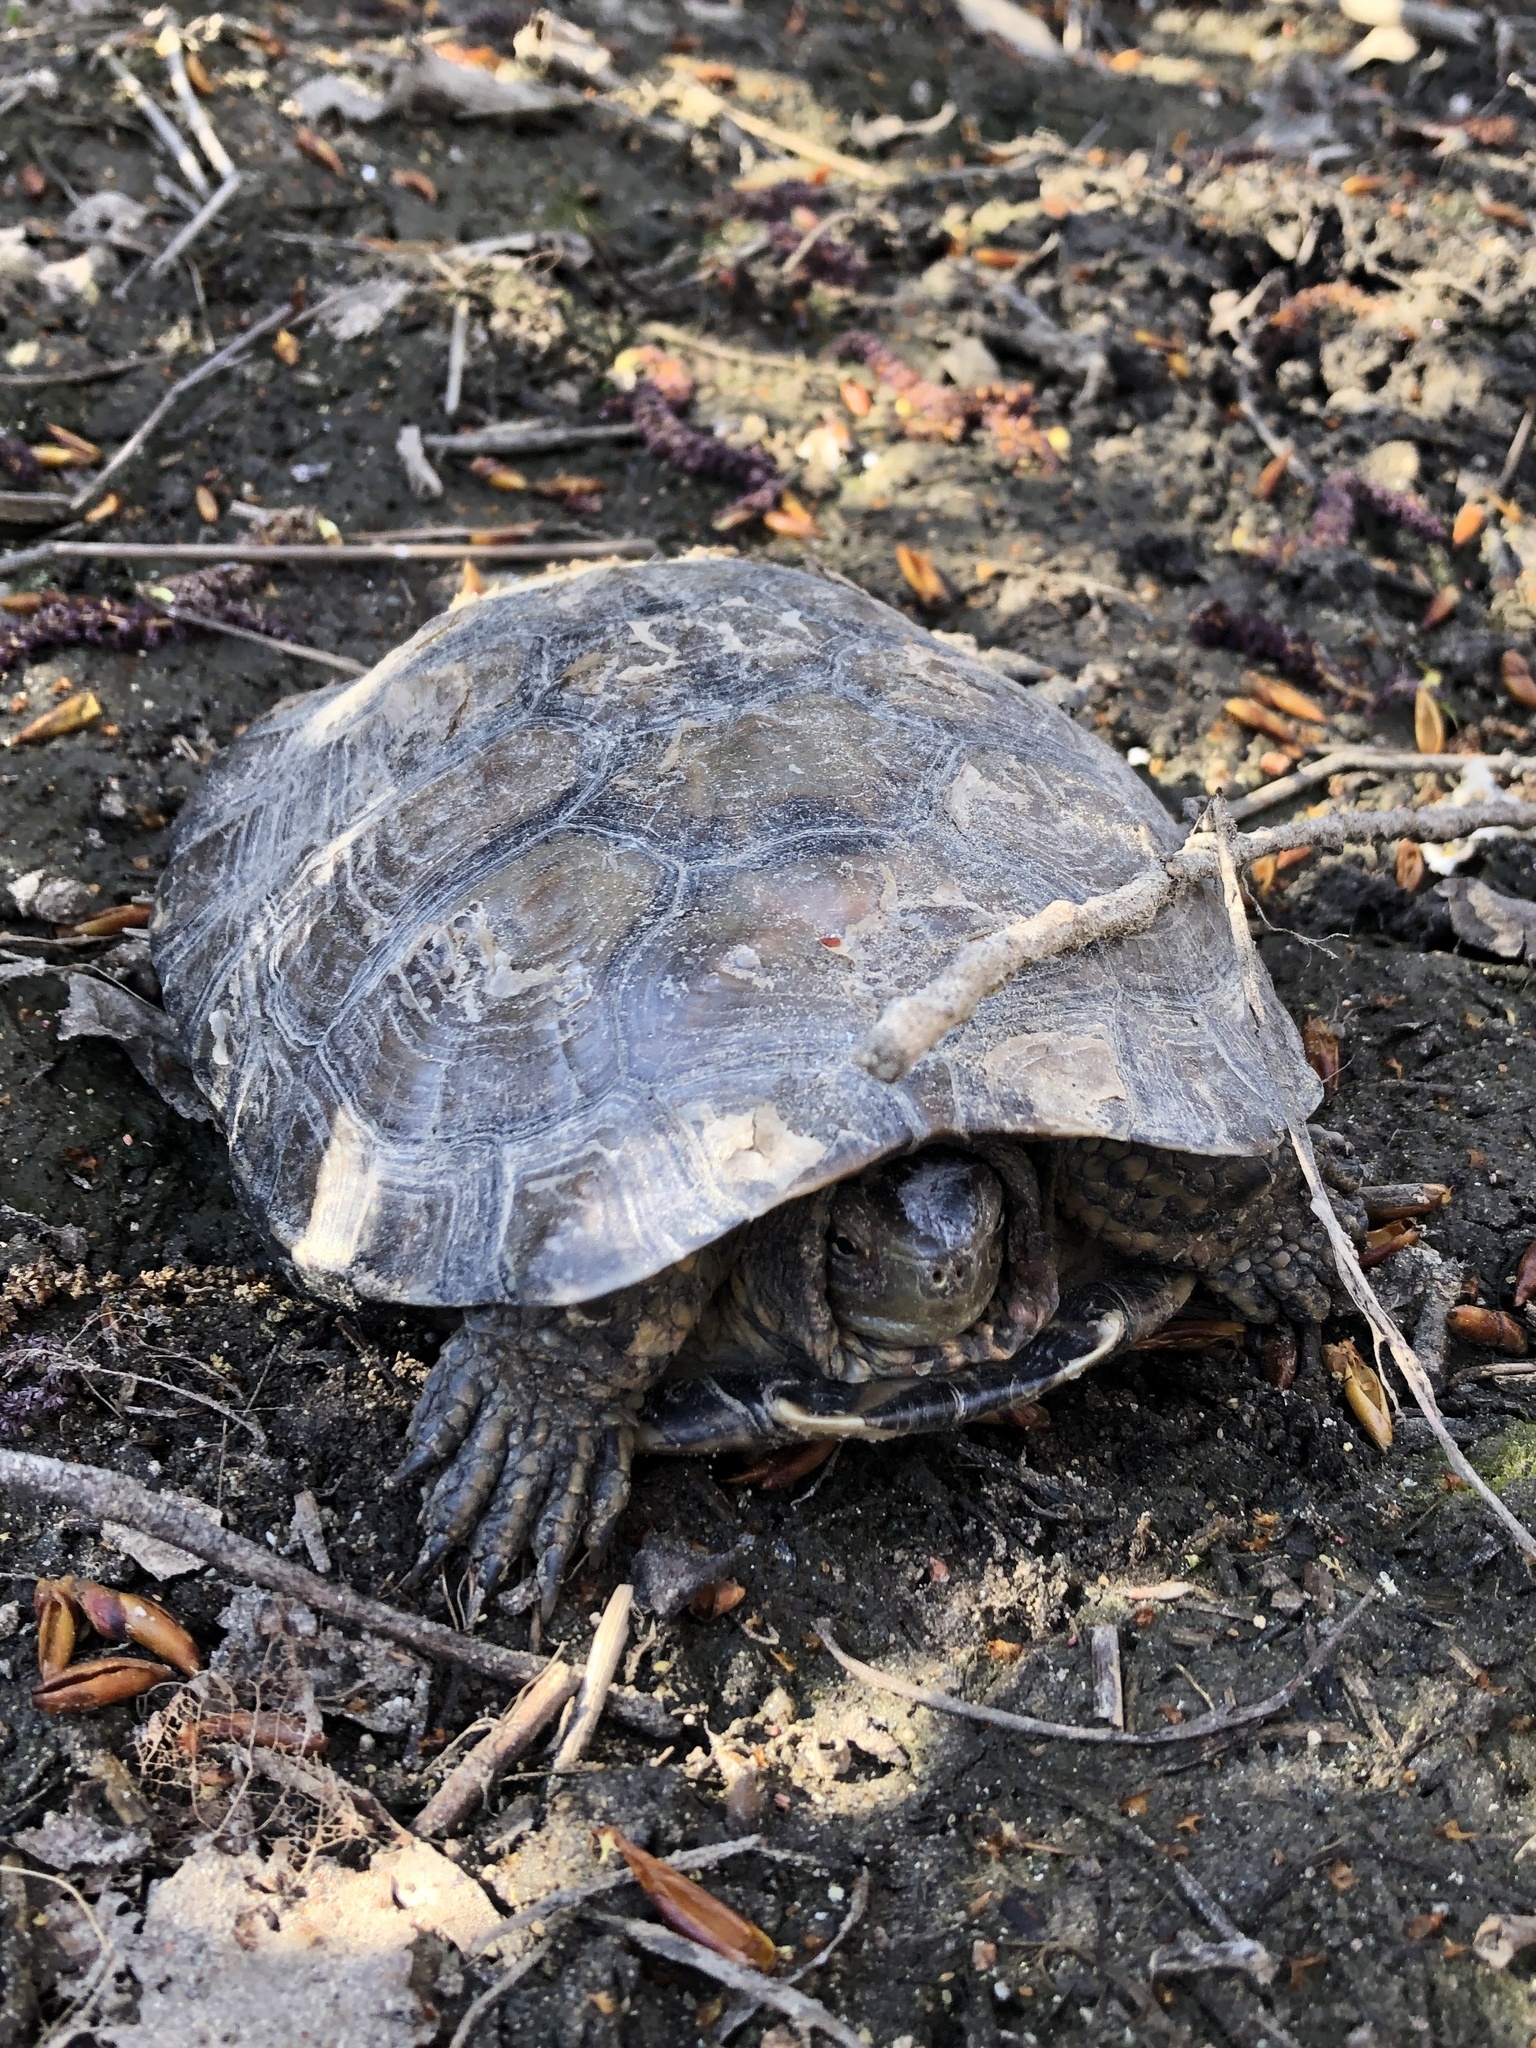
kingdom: Animalia
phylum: Chordata
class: Testudines
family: Geoemydidae
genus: Mauremys
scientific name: Mauremys leprosa
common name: Mediterranean pond turtle
